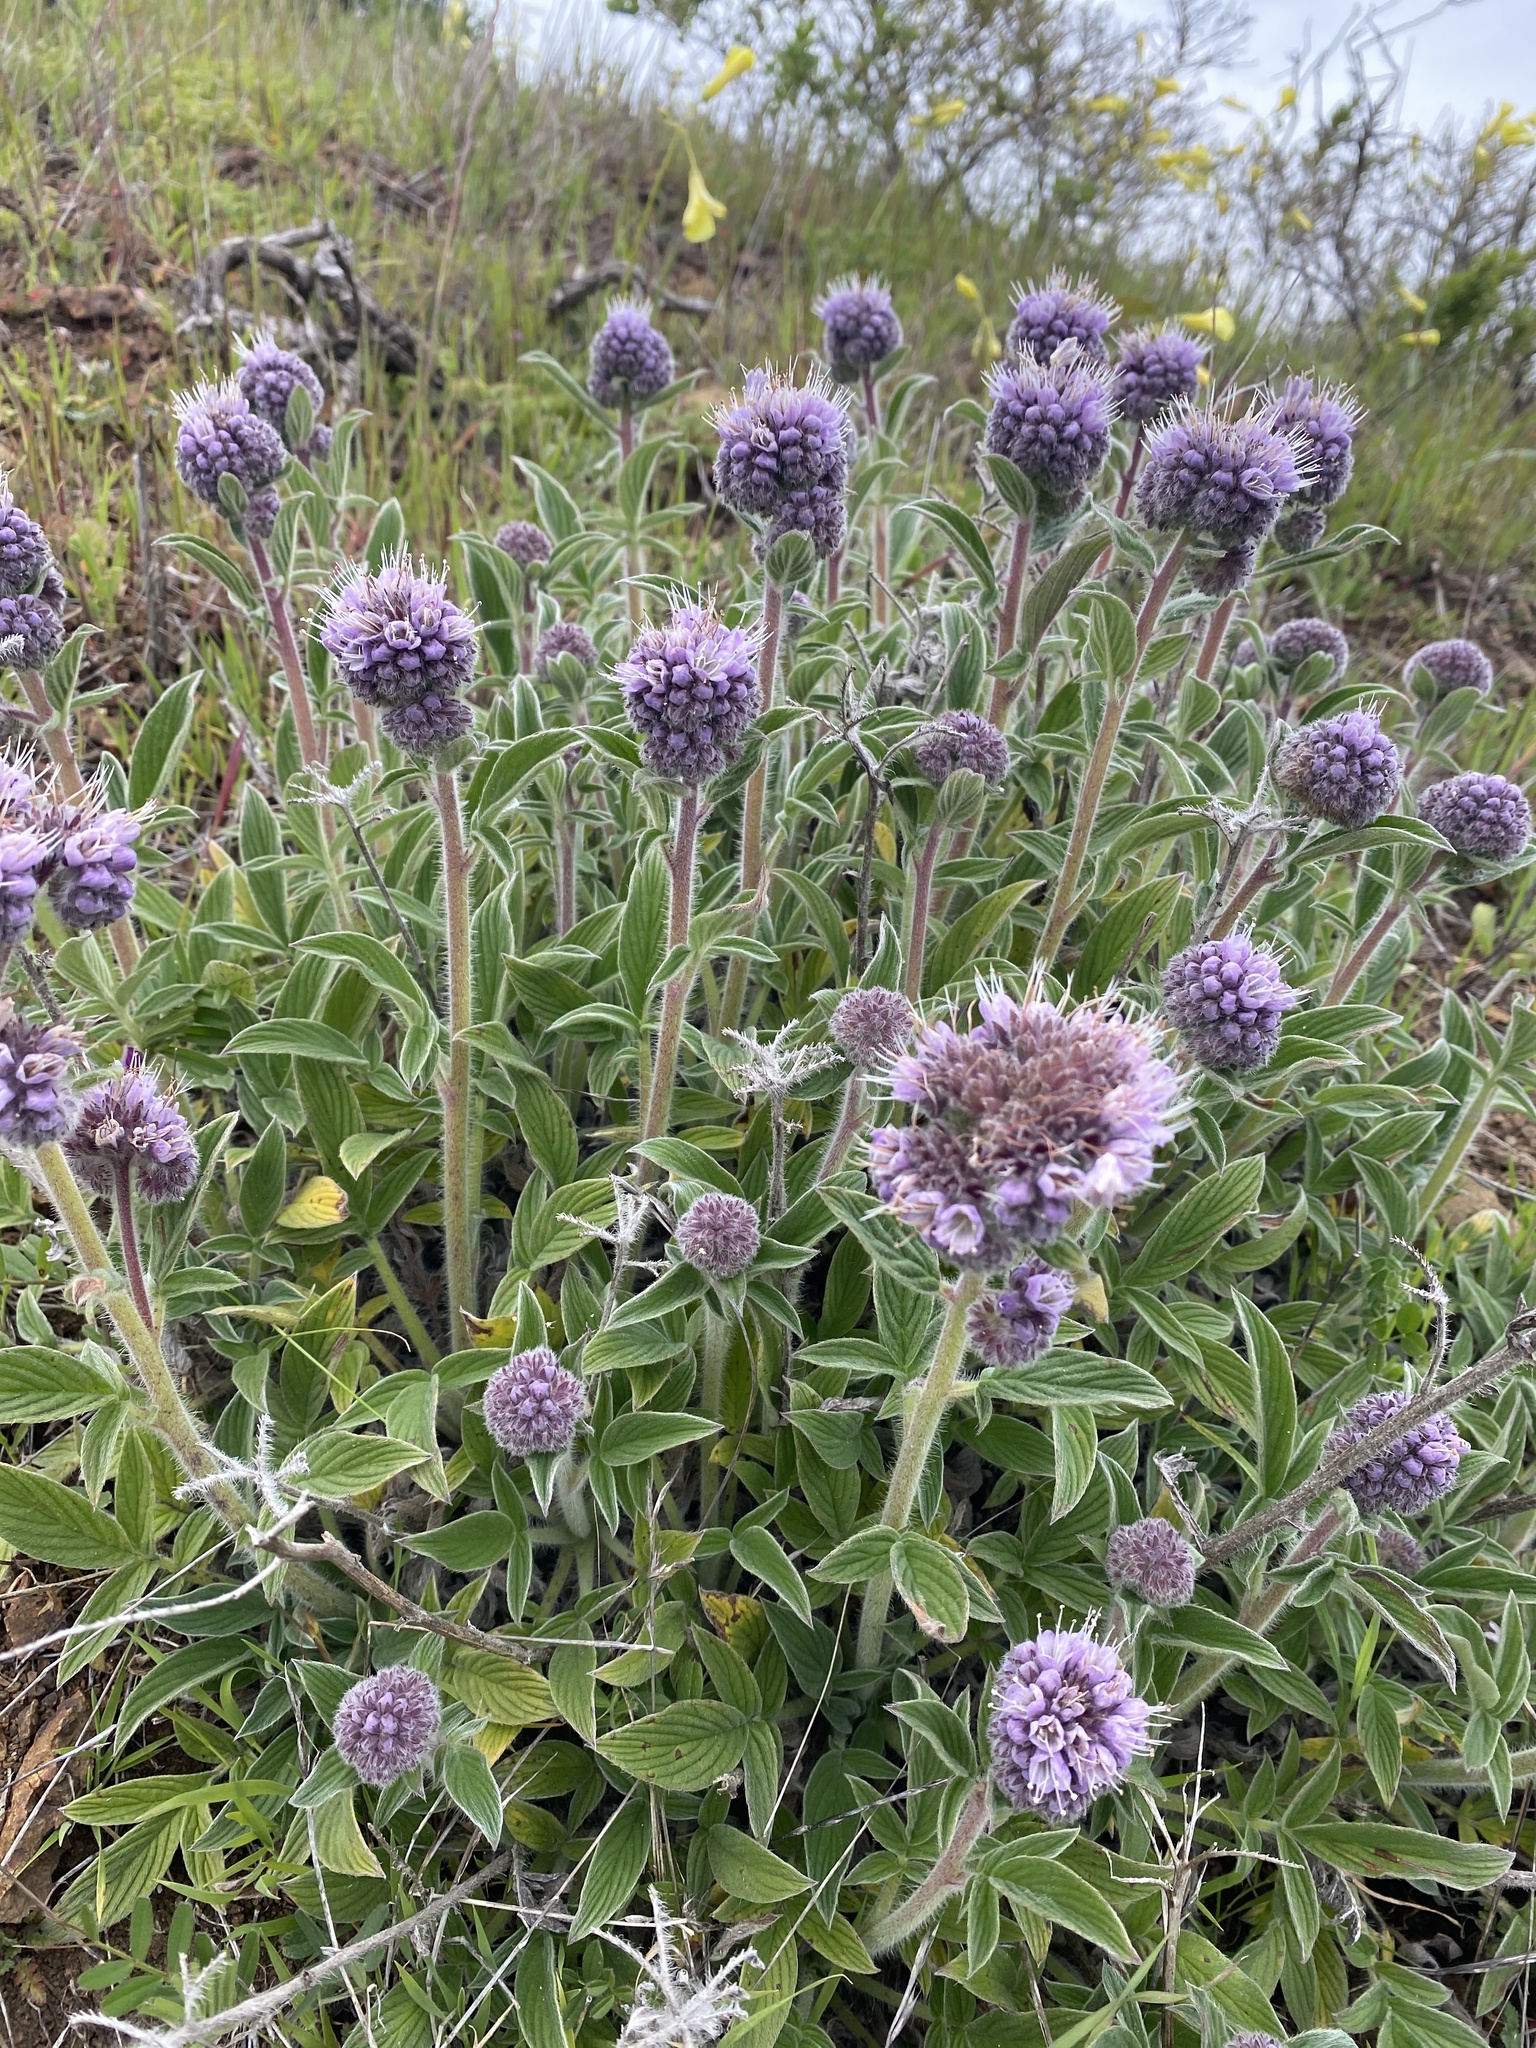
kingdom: Plantae
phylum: Tracheophyta
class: Magnoliopsida
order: Boraginales
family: Hydrophyllaceae
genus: Phacelia
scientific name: Phacelia californica
